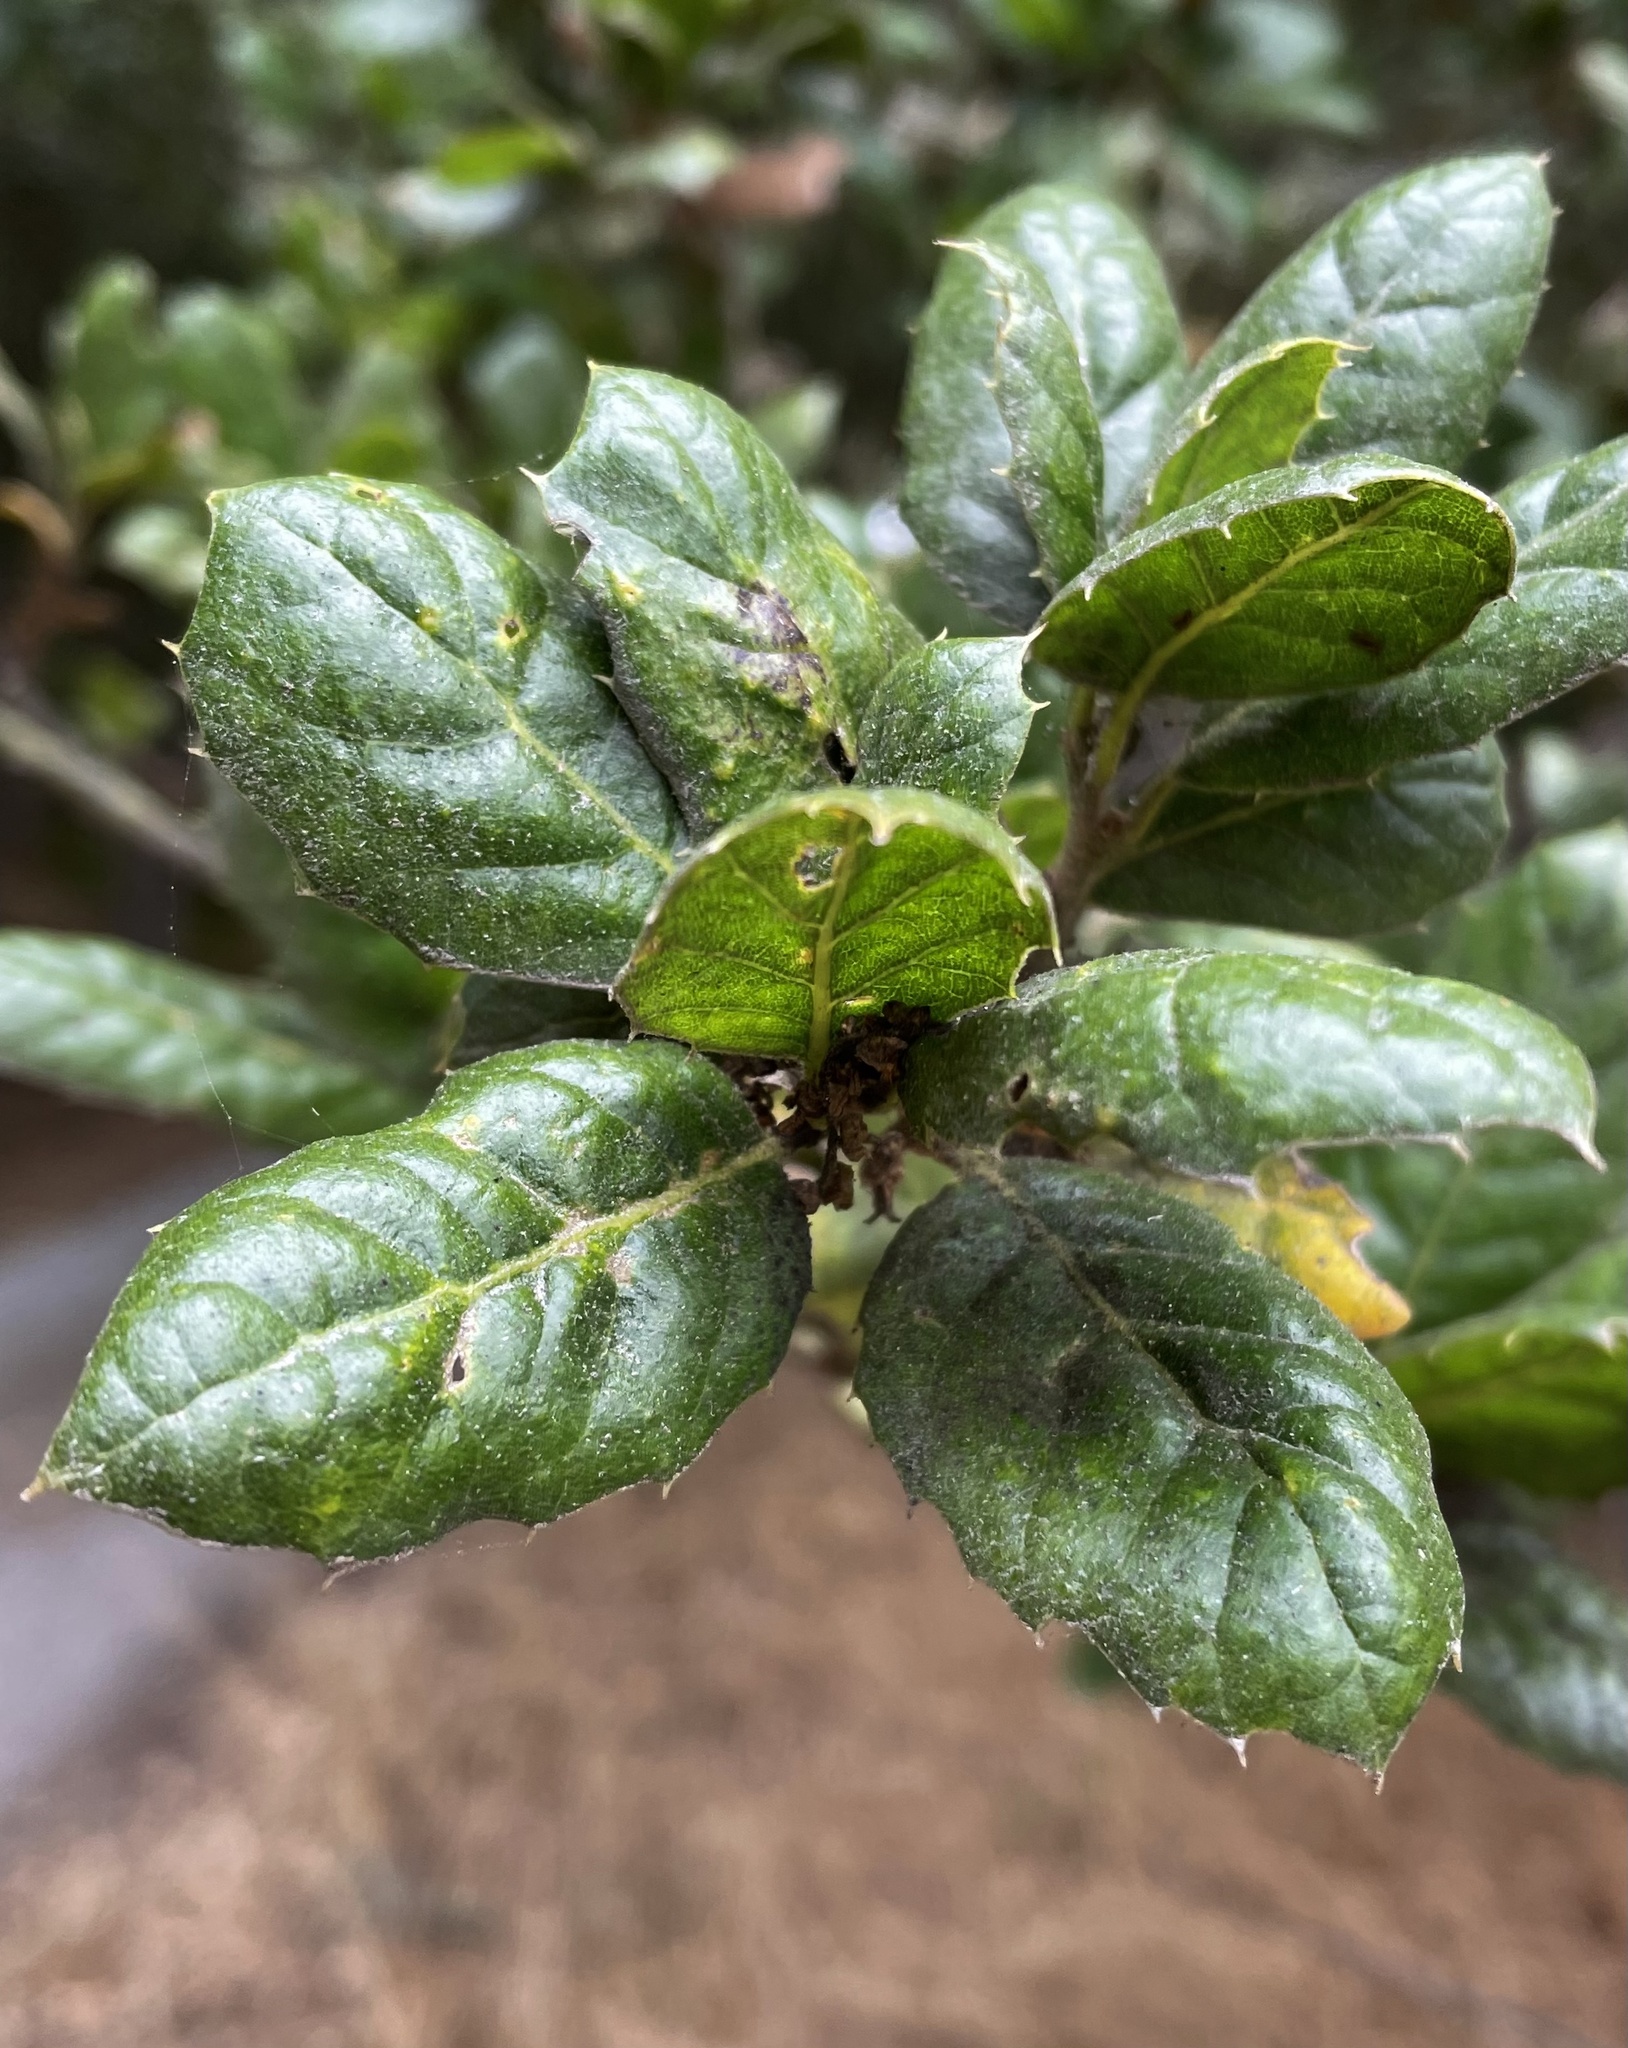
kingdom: Plantae
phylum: Tracheophyta
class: Magnoliopsida
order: Fagales
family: Fagaceae
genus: Quercus
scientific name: Quercus agrifolia
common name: California live oak
